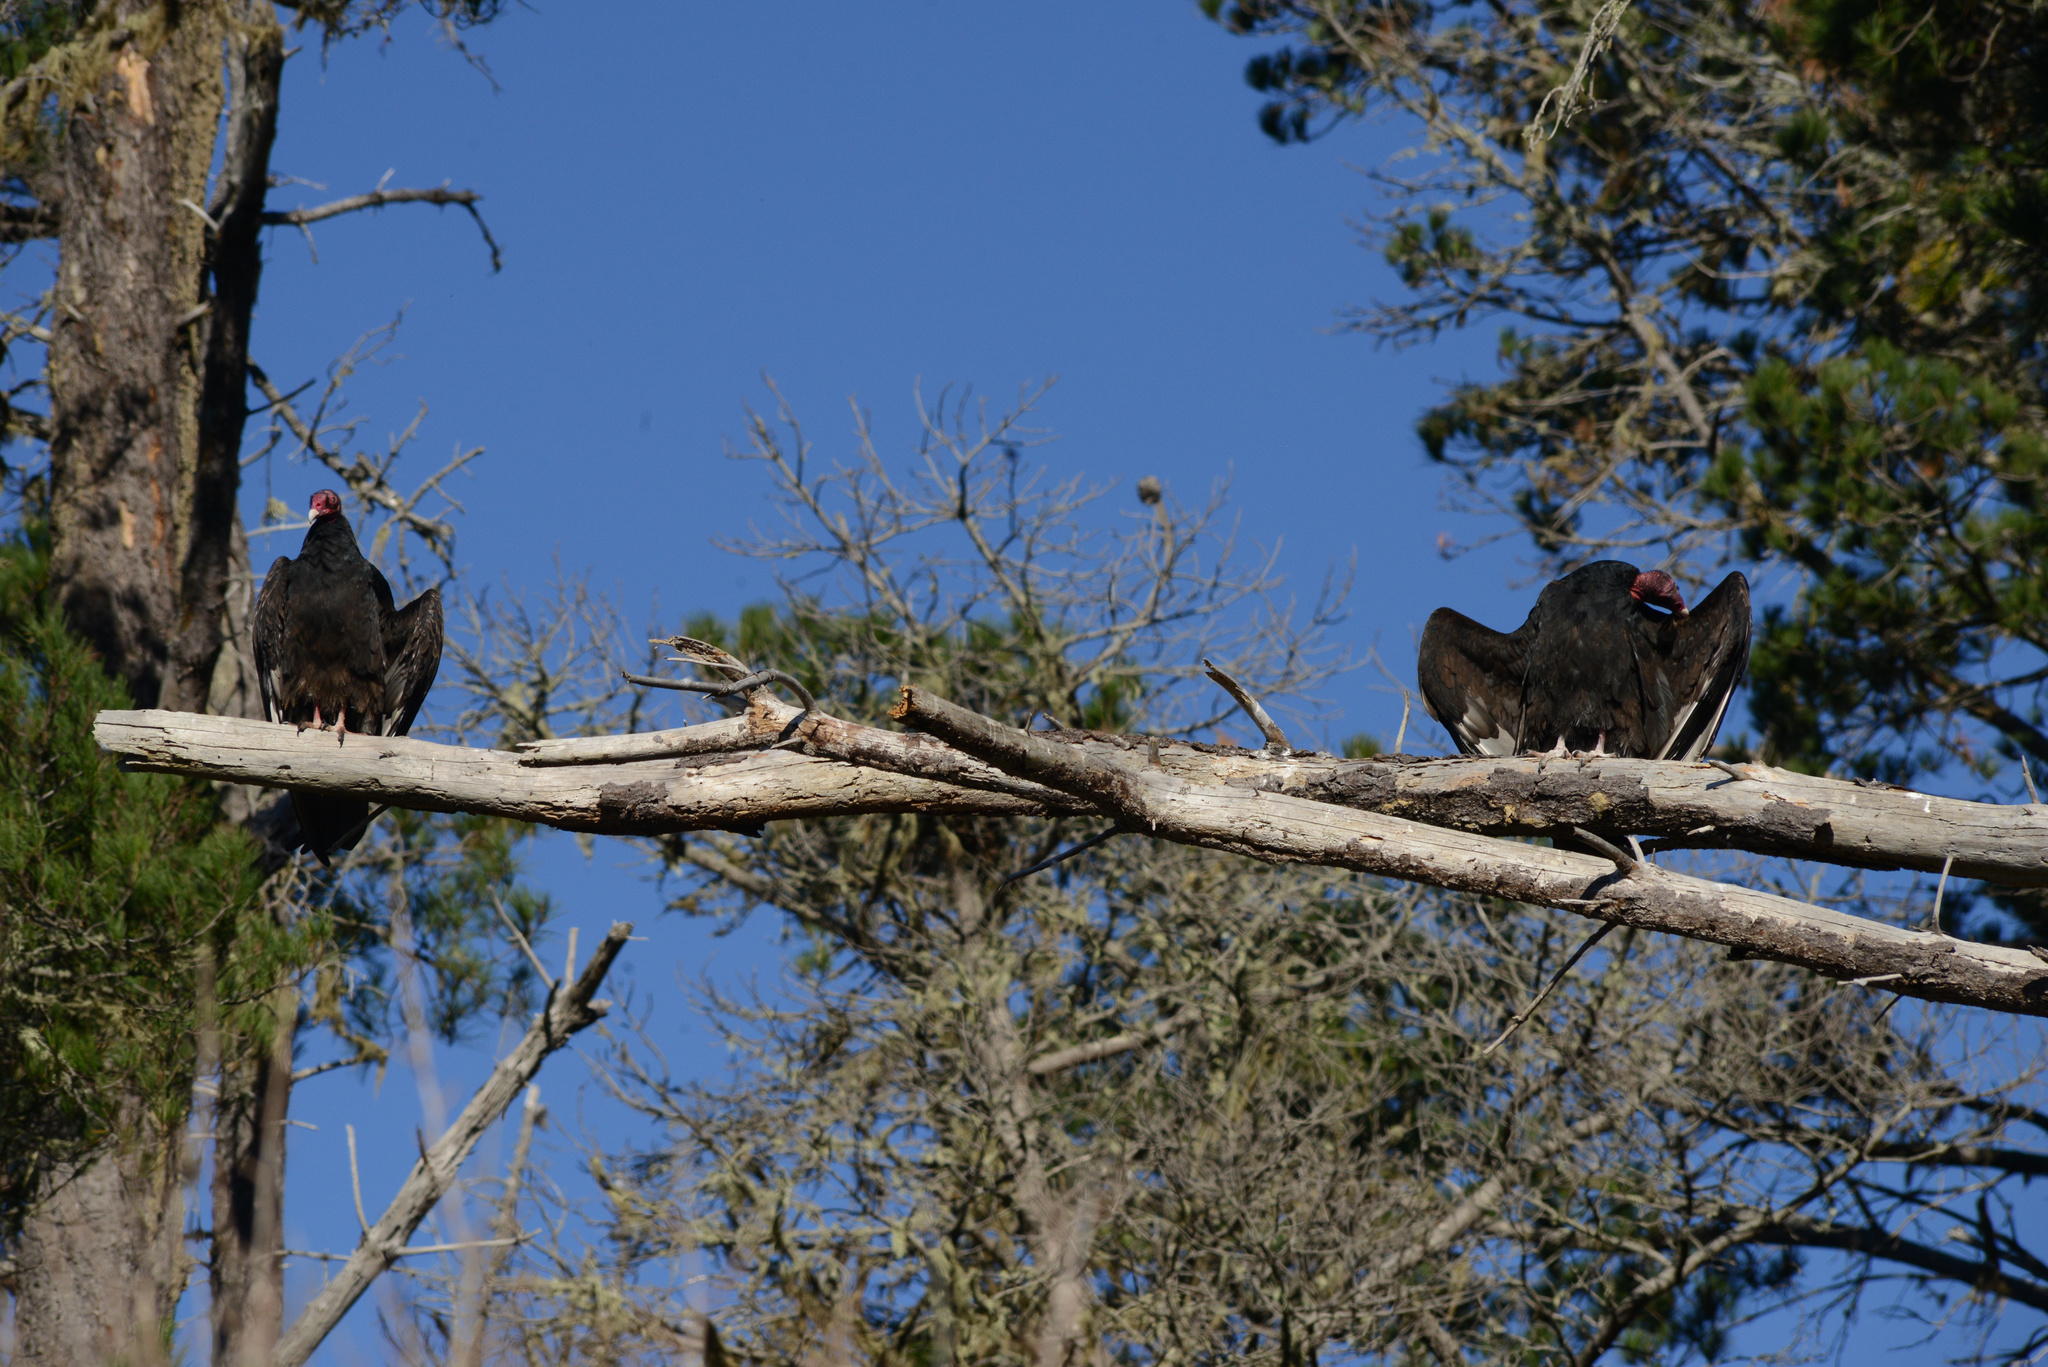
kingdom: Animalia
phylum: Chordata
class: Aves
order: Accipitriformes
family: Cathartidae
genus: Cathartes
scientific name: Cathartes aura
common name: Turkey vulture
